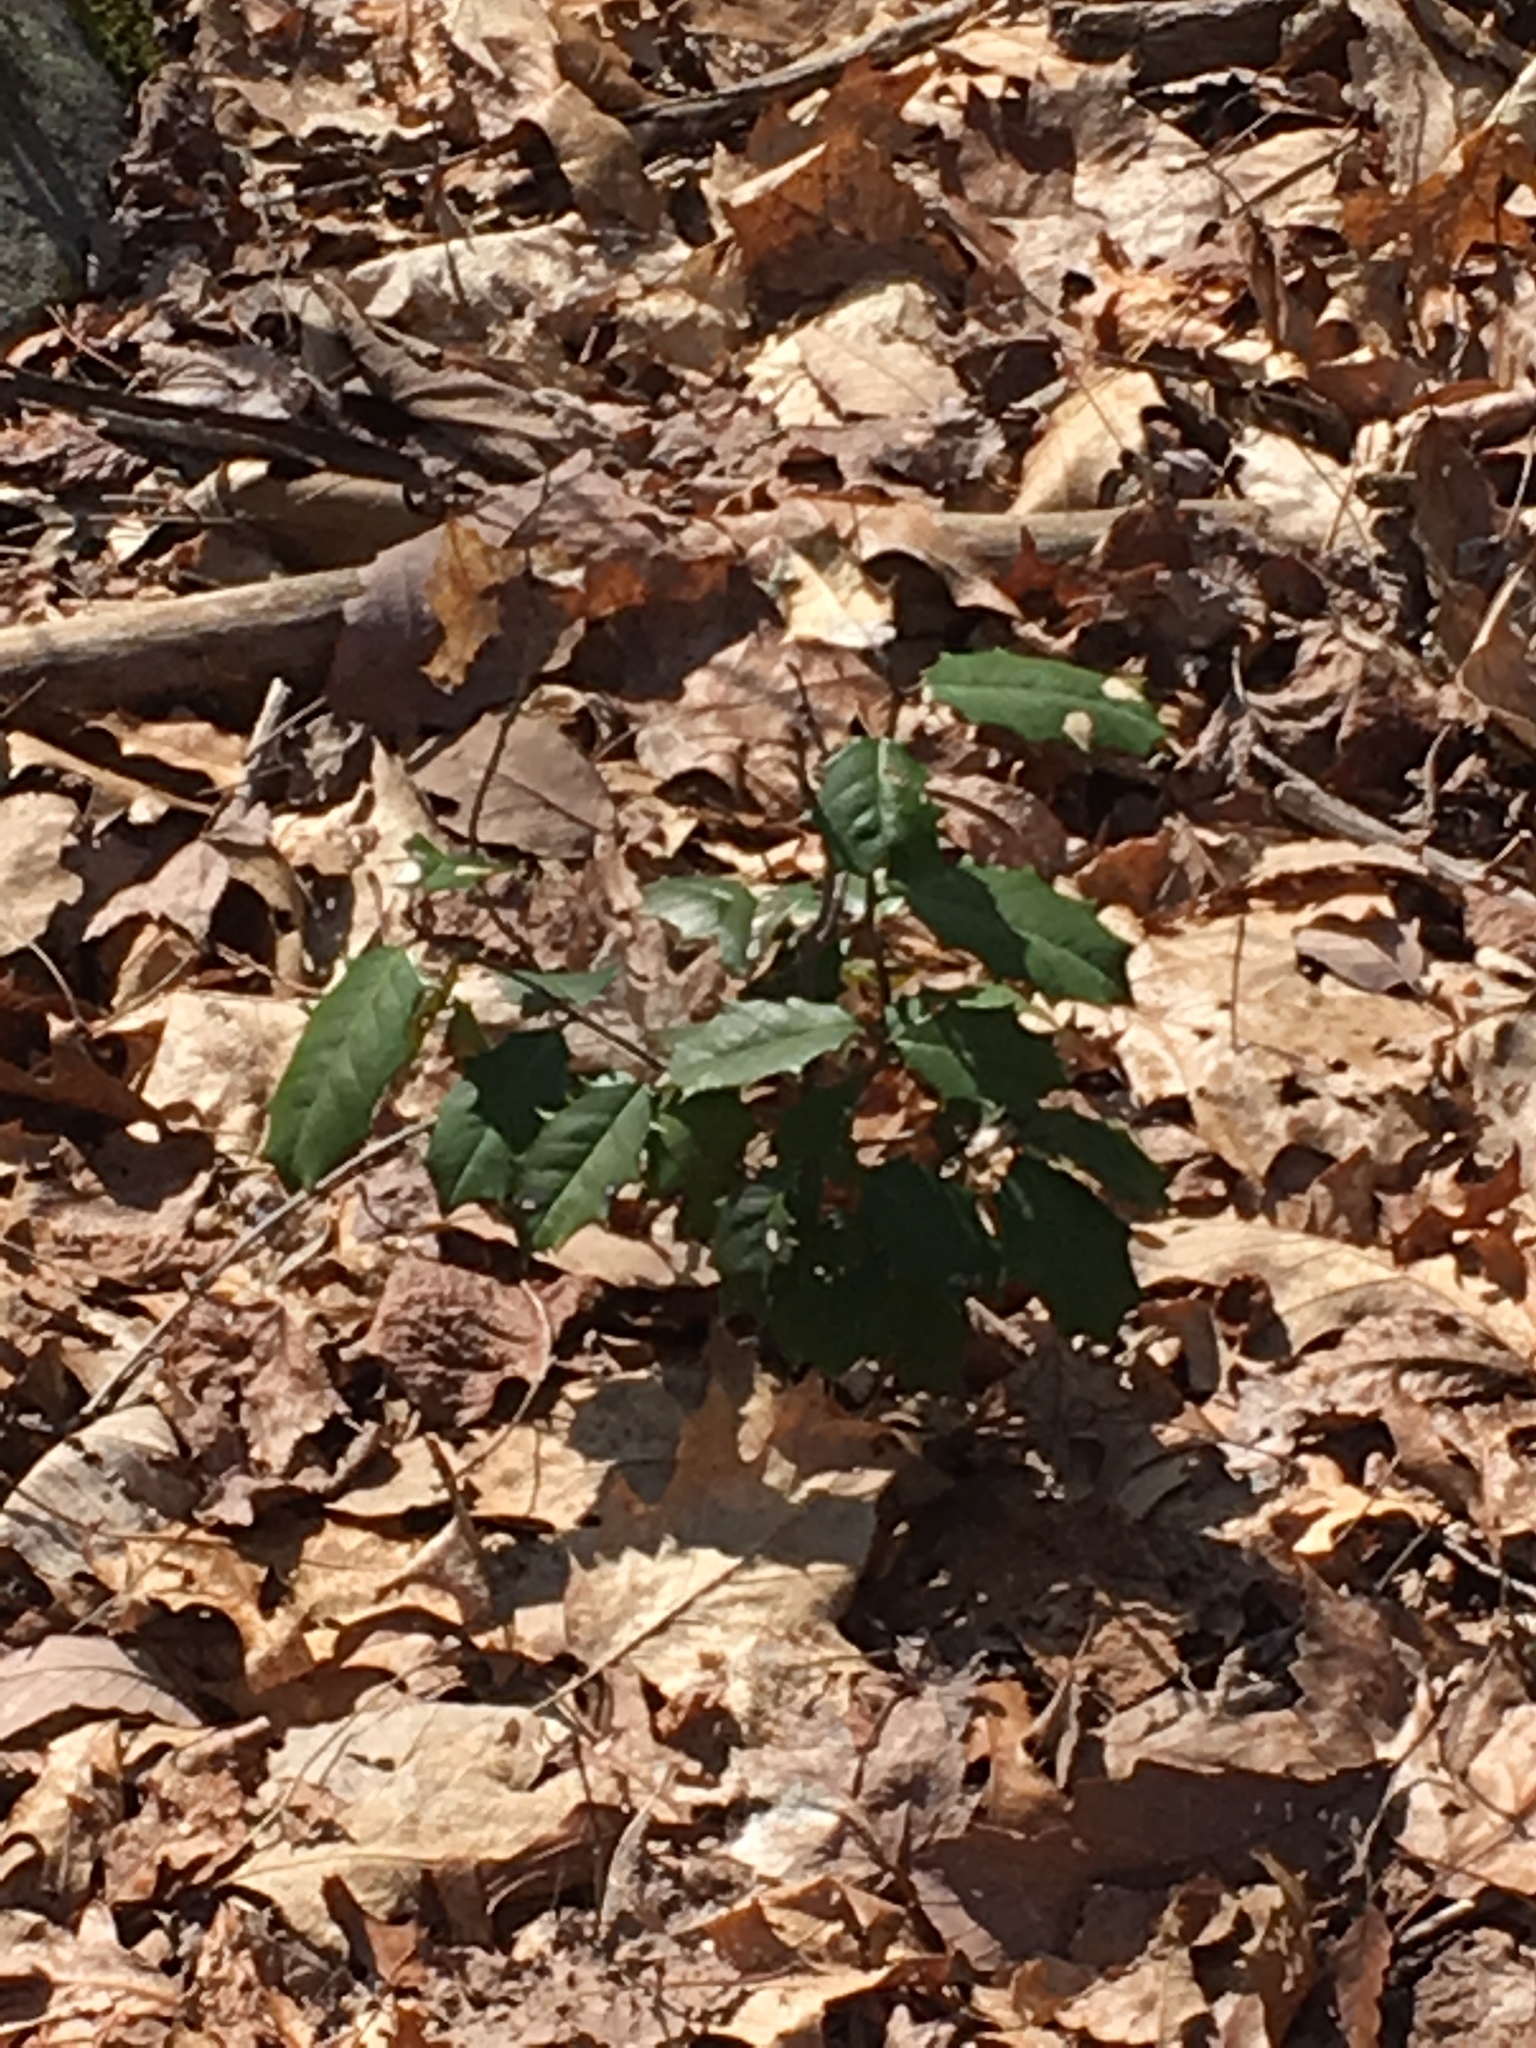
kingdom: Plantae
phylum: Tracheophyta
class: Magnoliopsida
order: Aquifoliales
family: Aquifoliaceae
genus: Ilex
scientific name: Ilex opaca
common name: American holly
